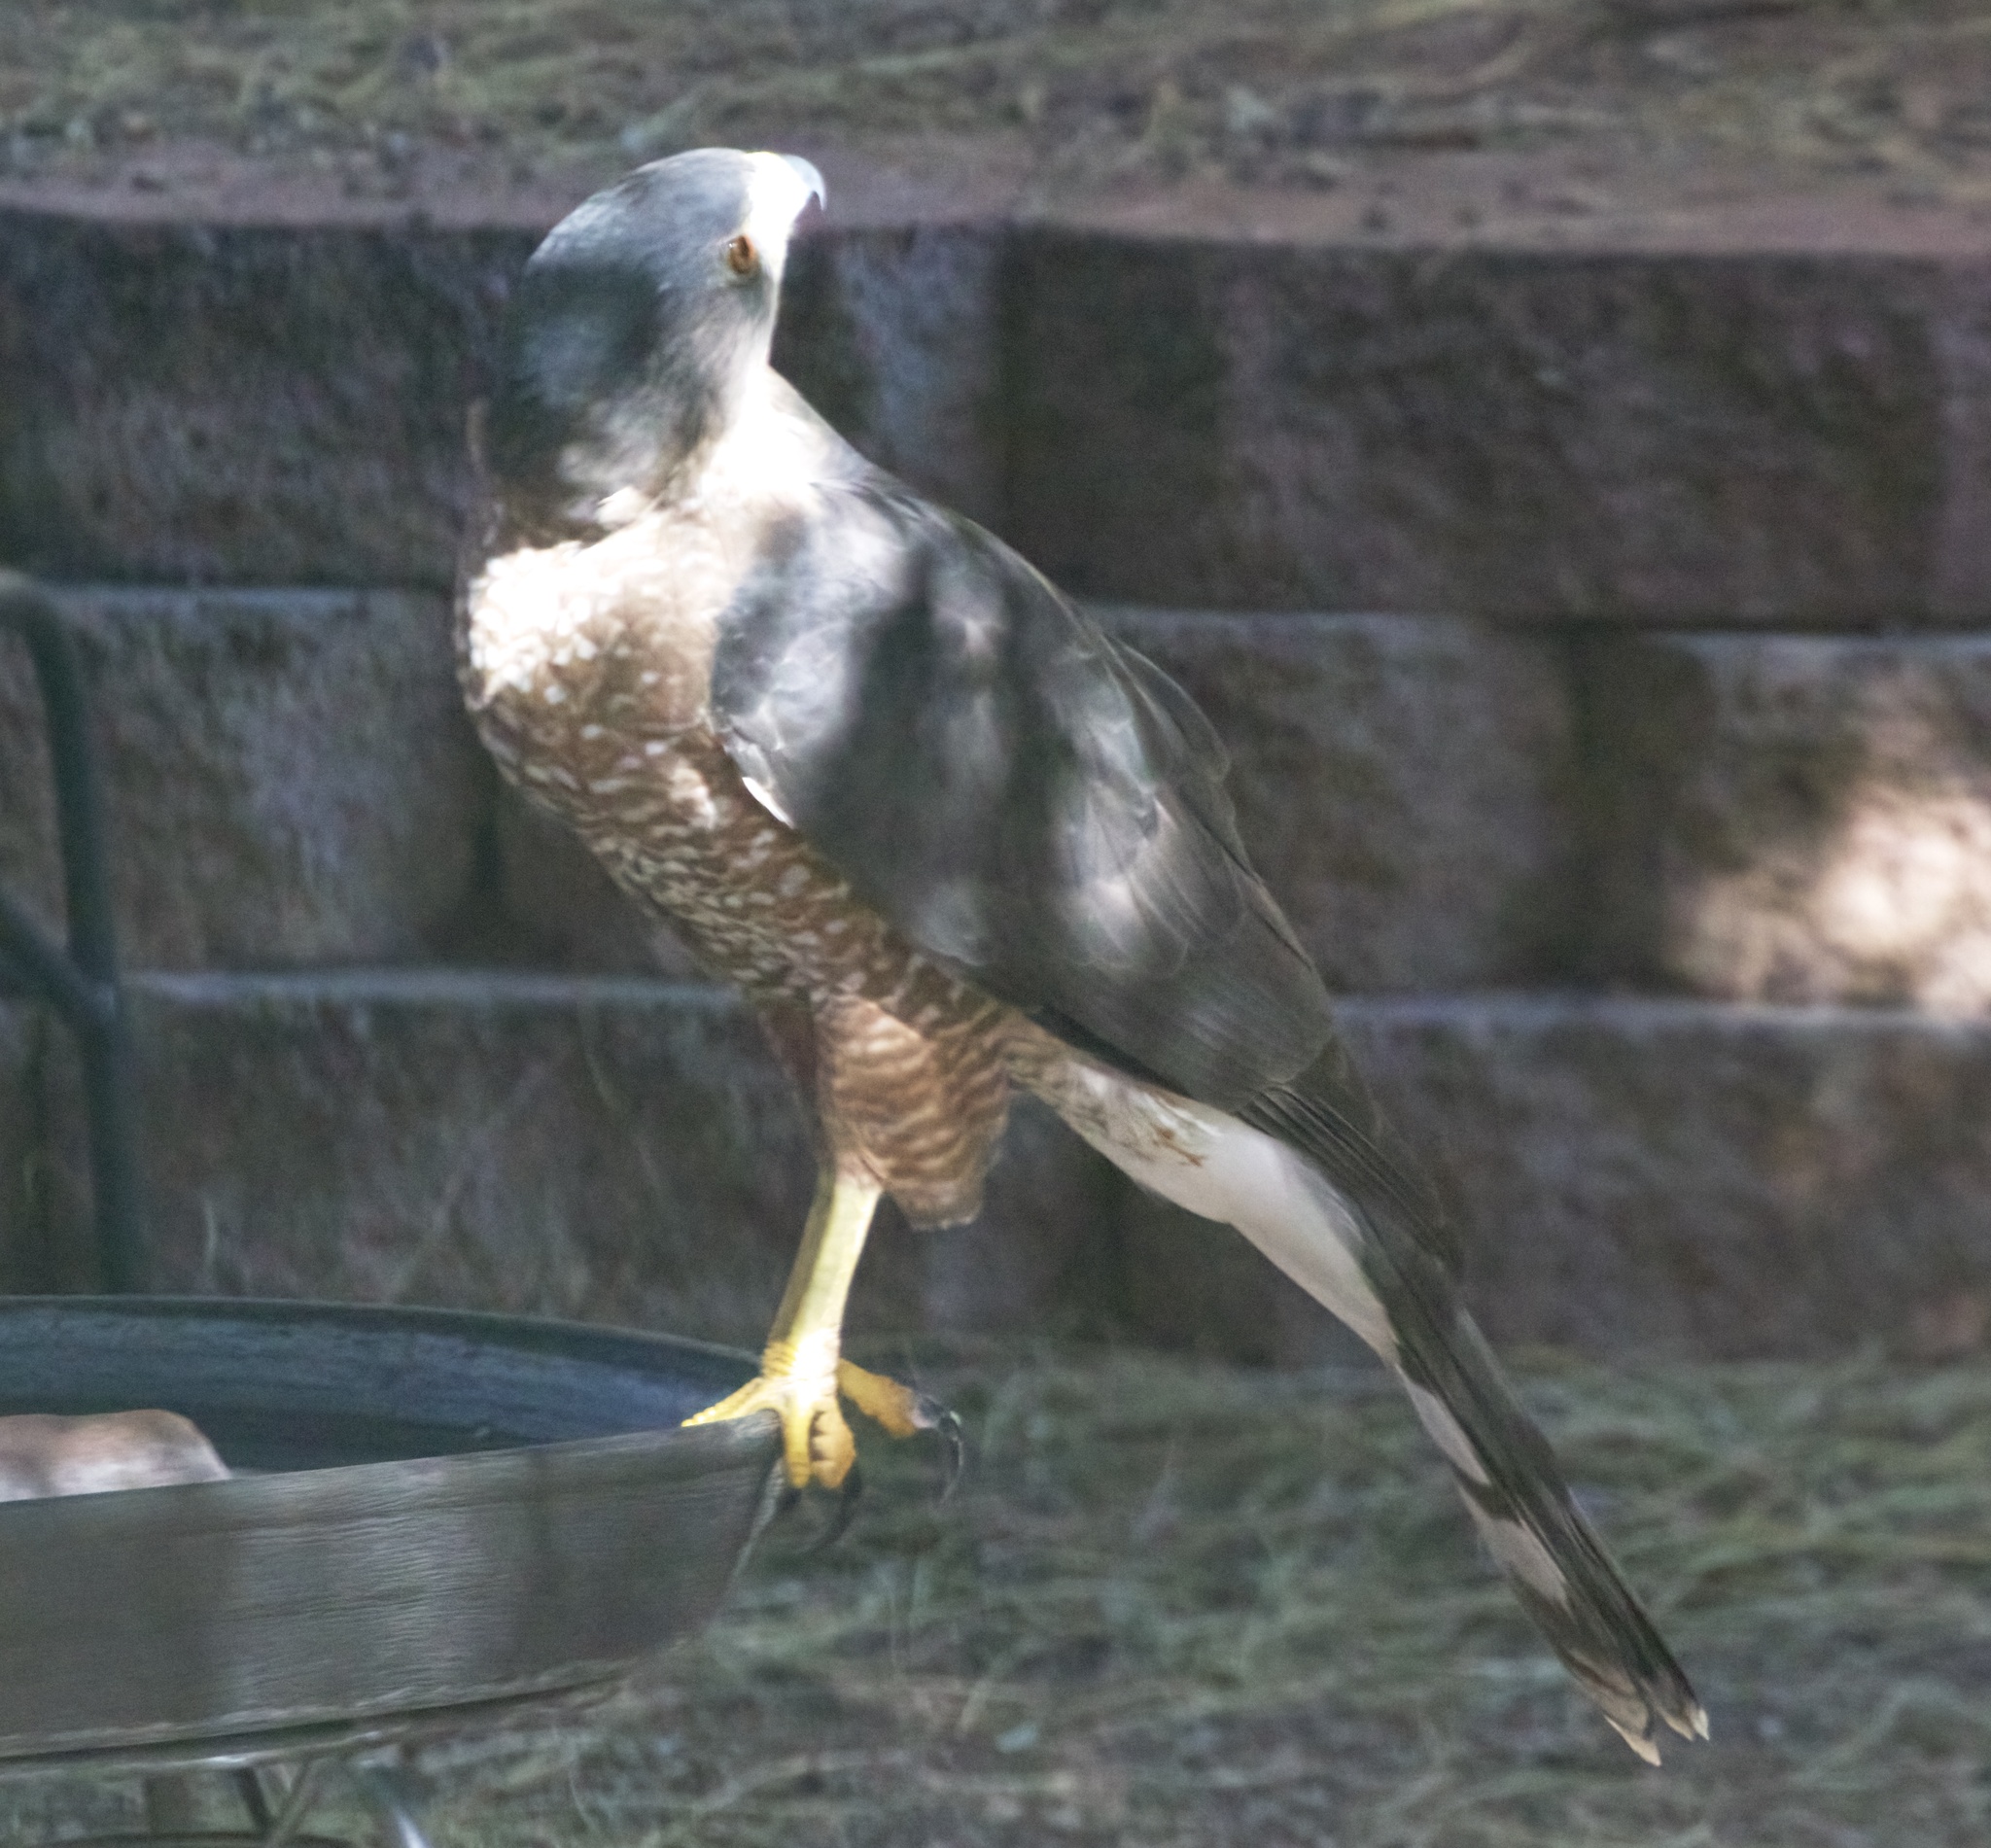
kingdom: Animalia
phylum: Chordata
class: Aves
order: Accipitriformes
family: Accipitridae
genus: Accipiter
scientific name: Accipiter cooperii
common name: Cooper's hawk
